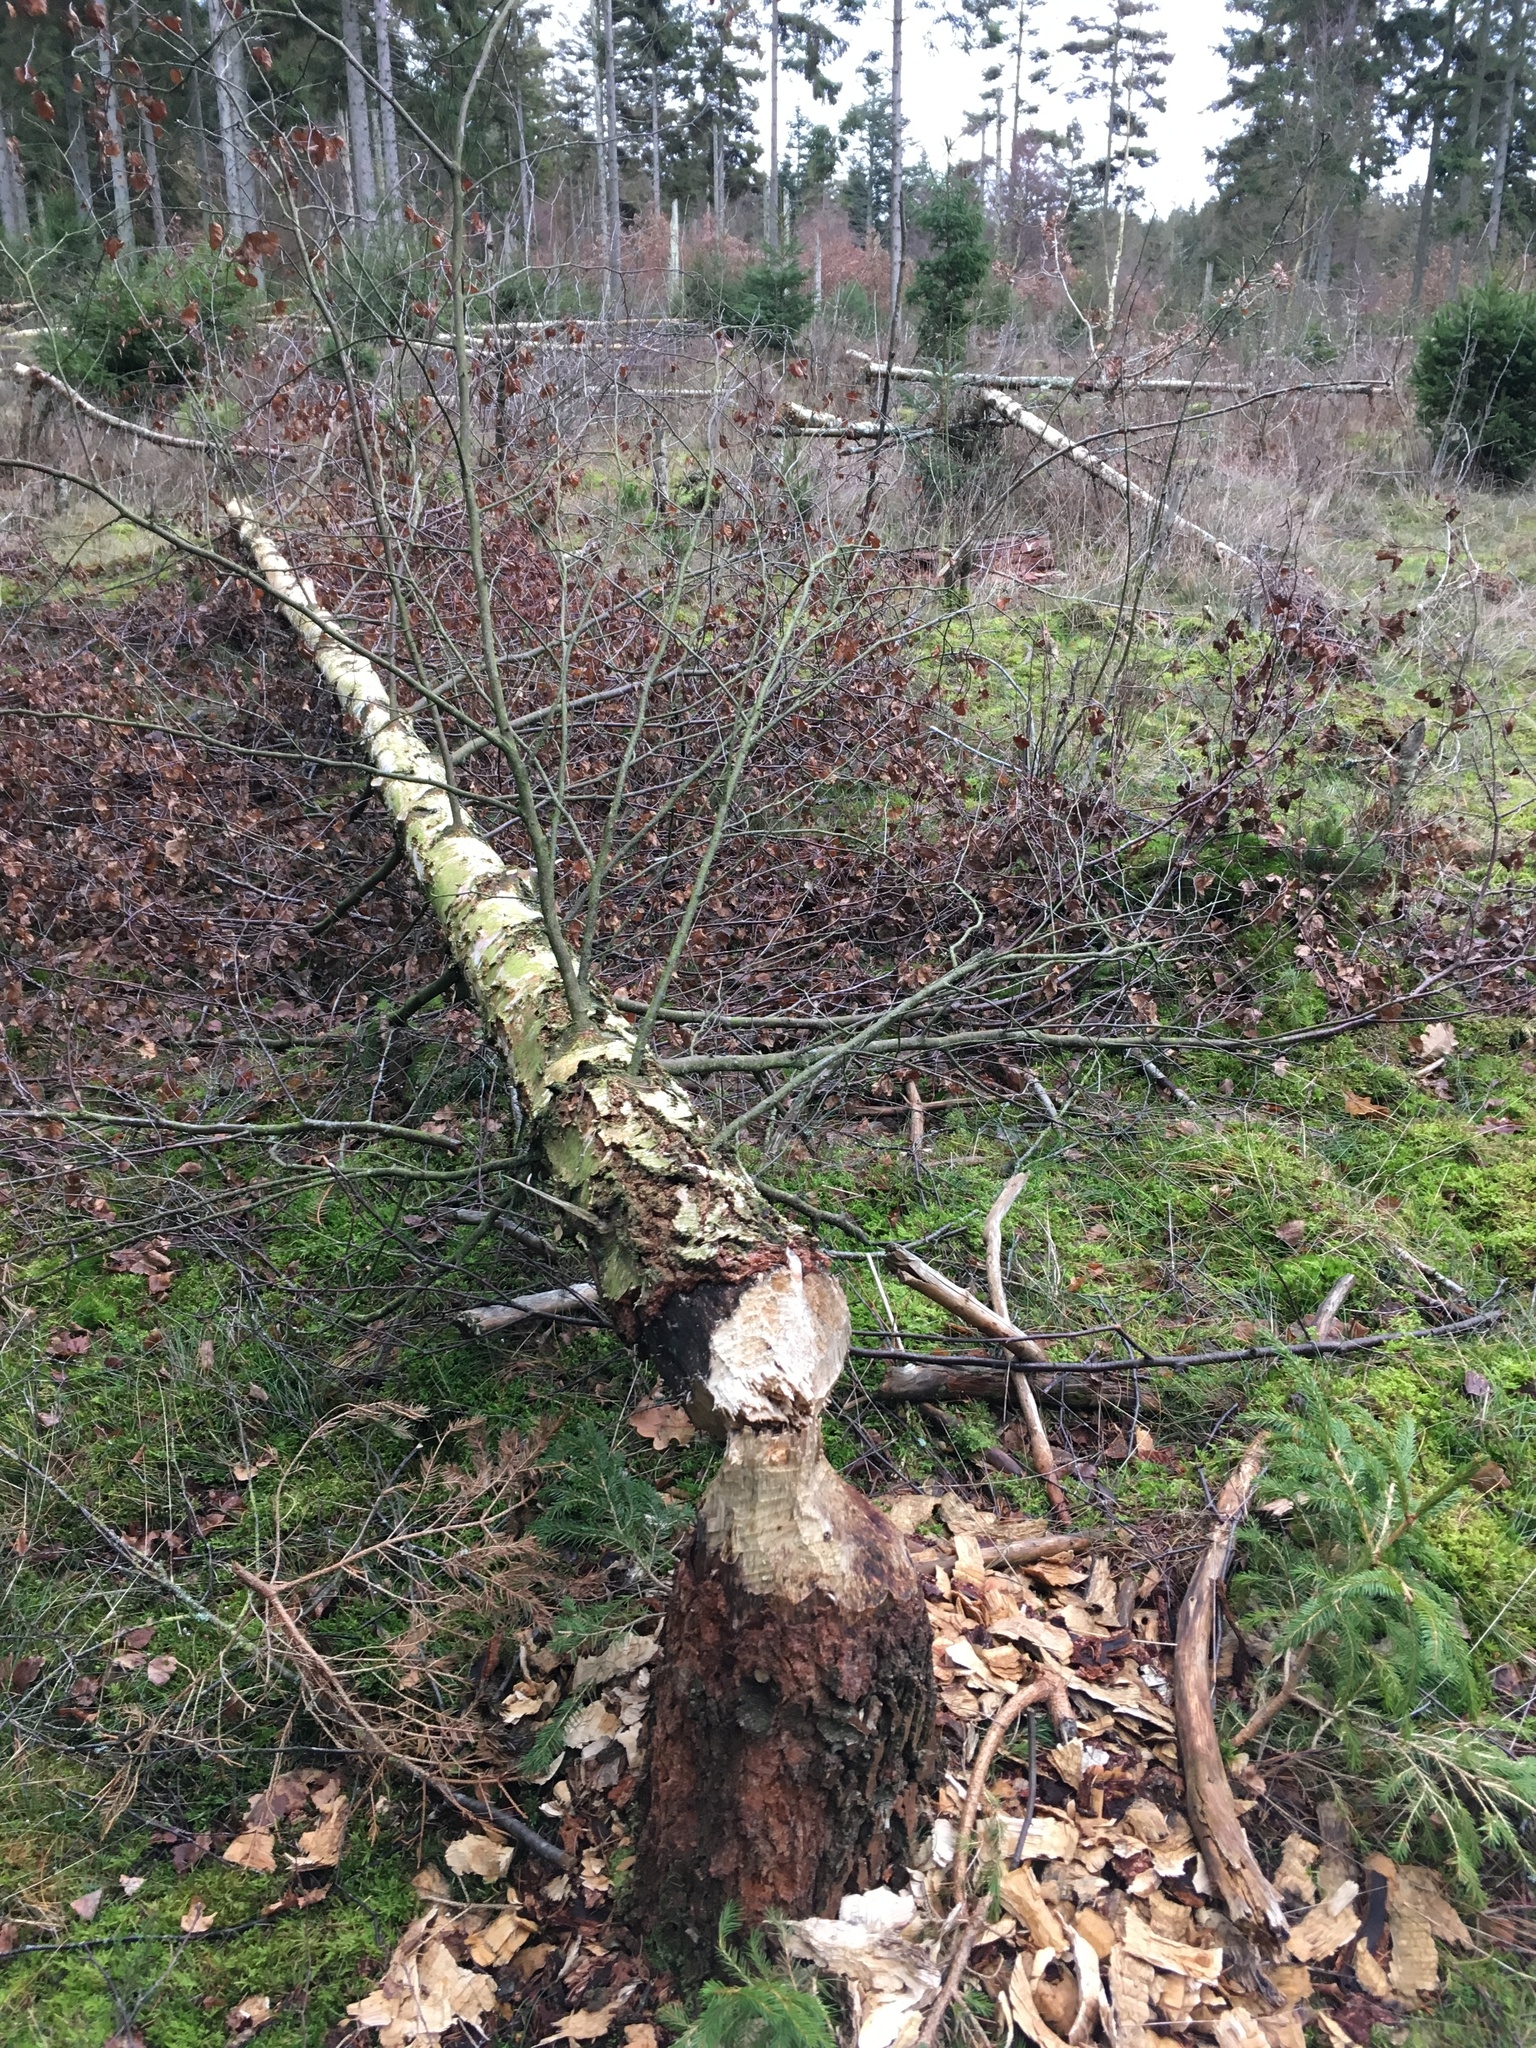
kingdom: Animalia
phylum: Chordata
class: Mammalia
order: Rodentia
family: Castoridae
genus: Castor
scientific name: Castor fiber
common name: Eurasian beaver
